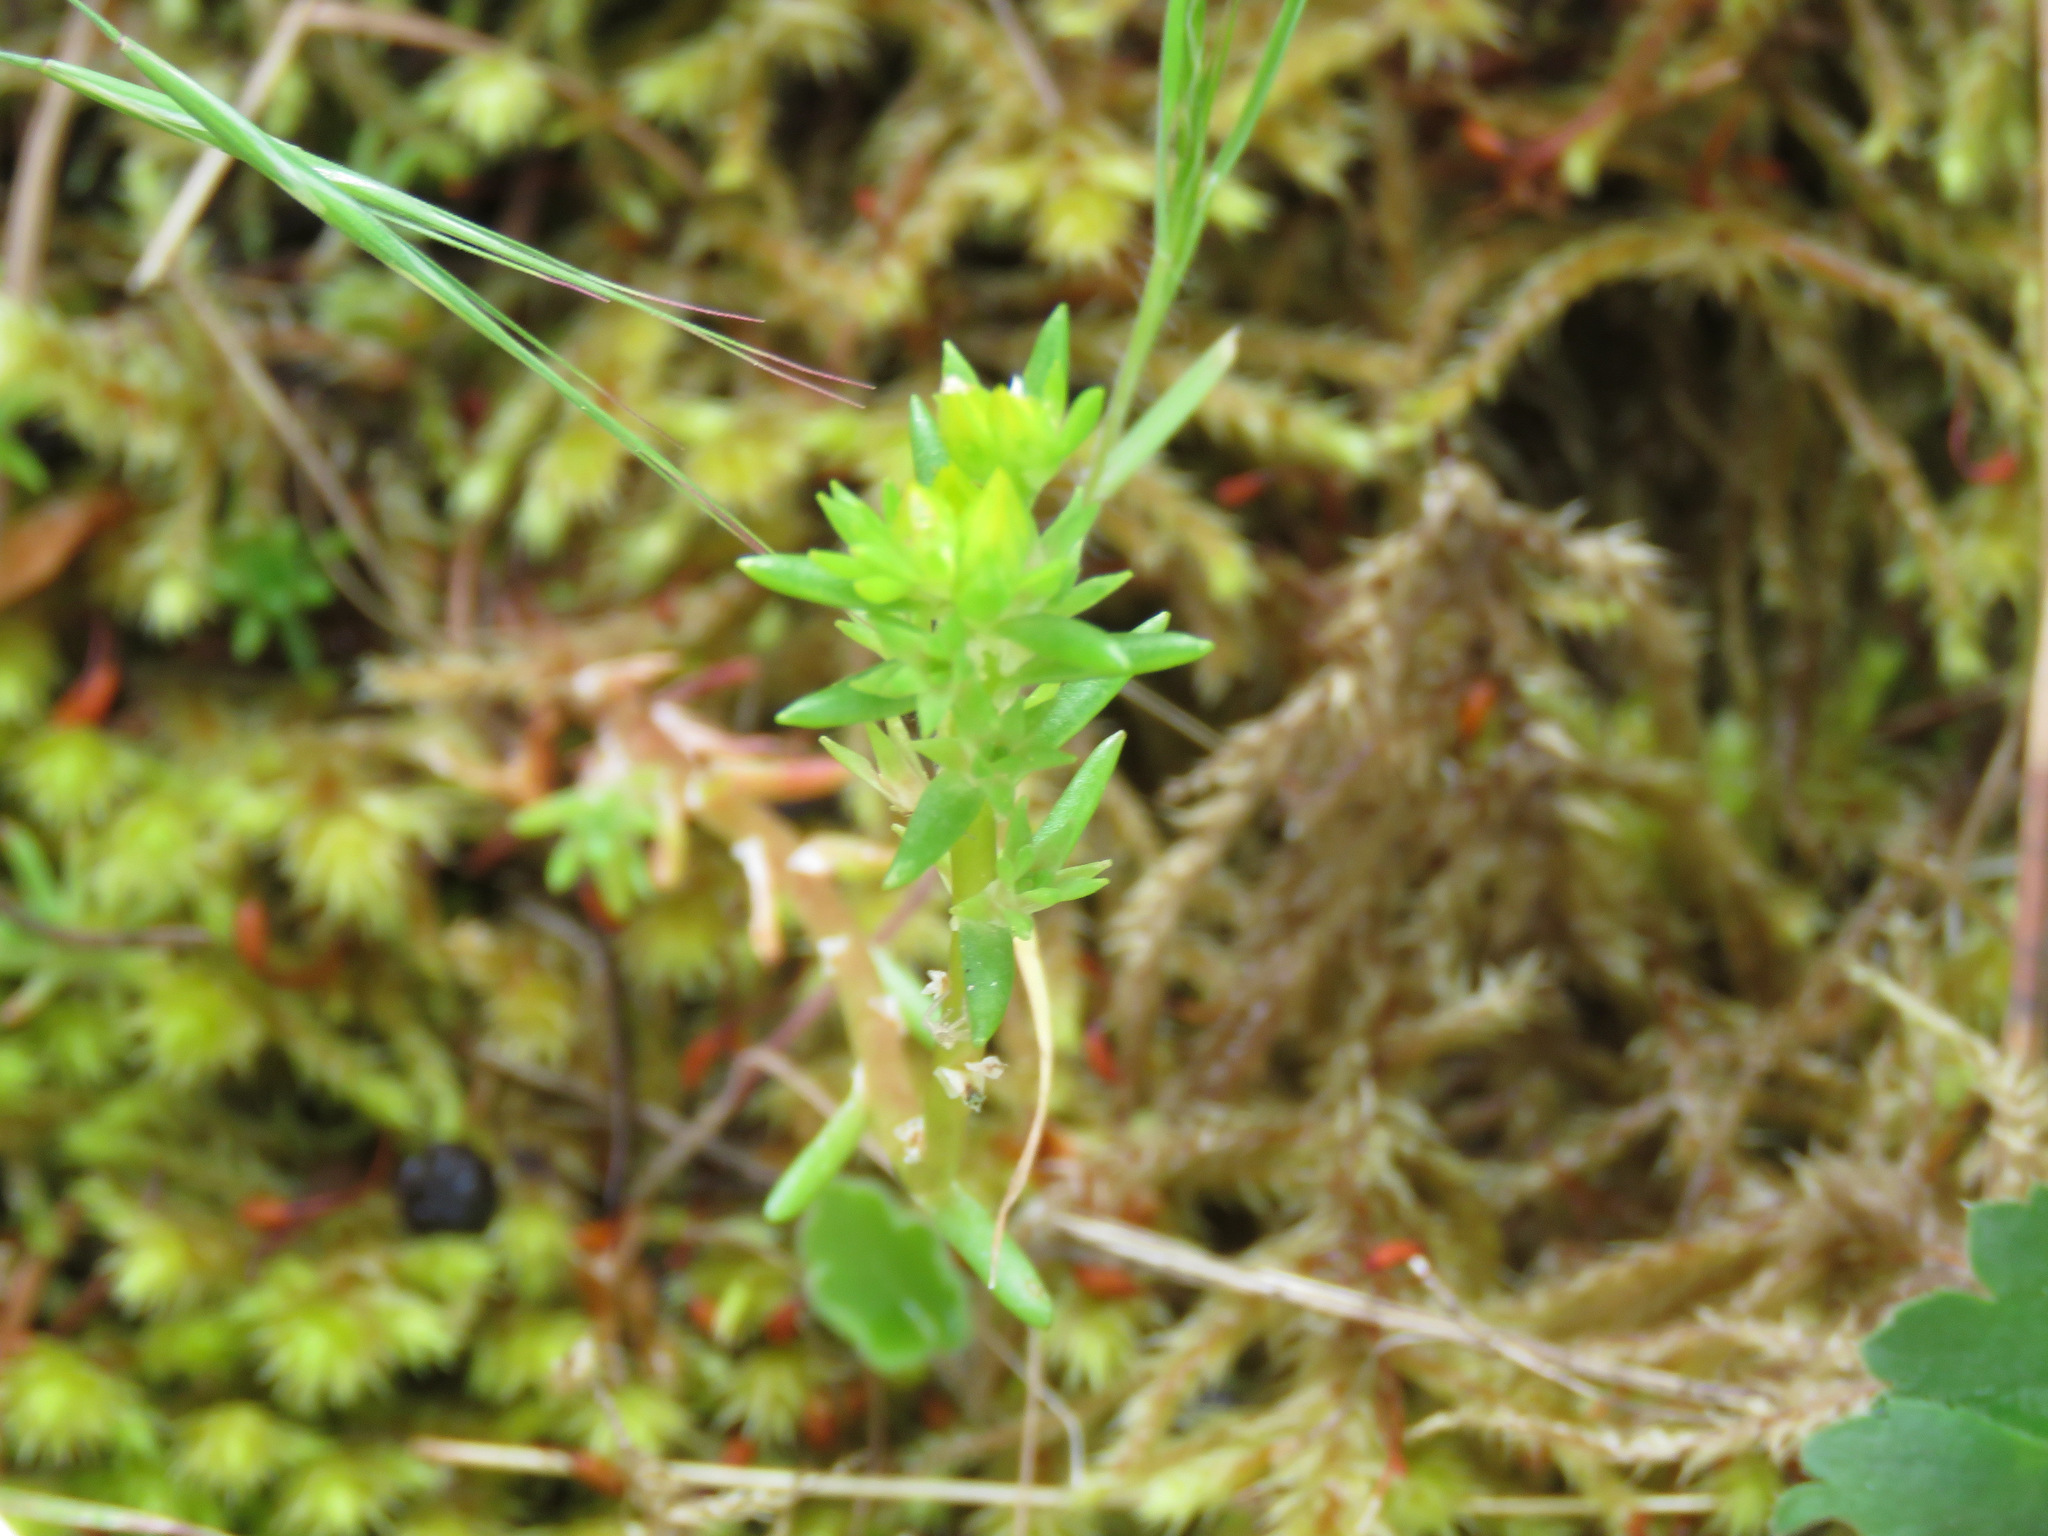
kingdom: Plantae
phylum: Tracheophyta
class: Magnoliopsida
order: Saxifragales
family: Crassulaceae
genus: Sedum
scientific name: Sedum stenopetalum
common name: Narrow-petaled stonecrop
